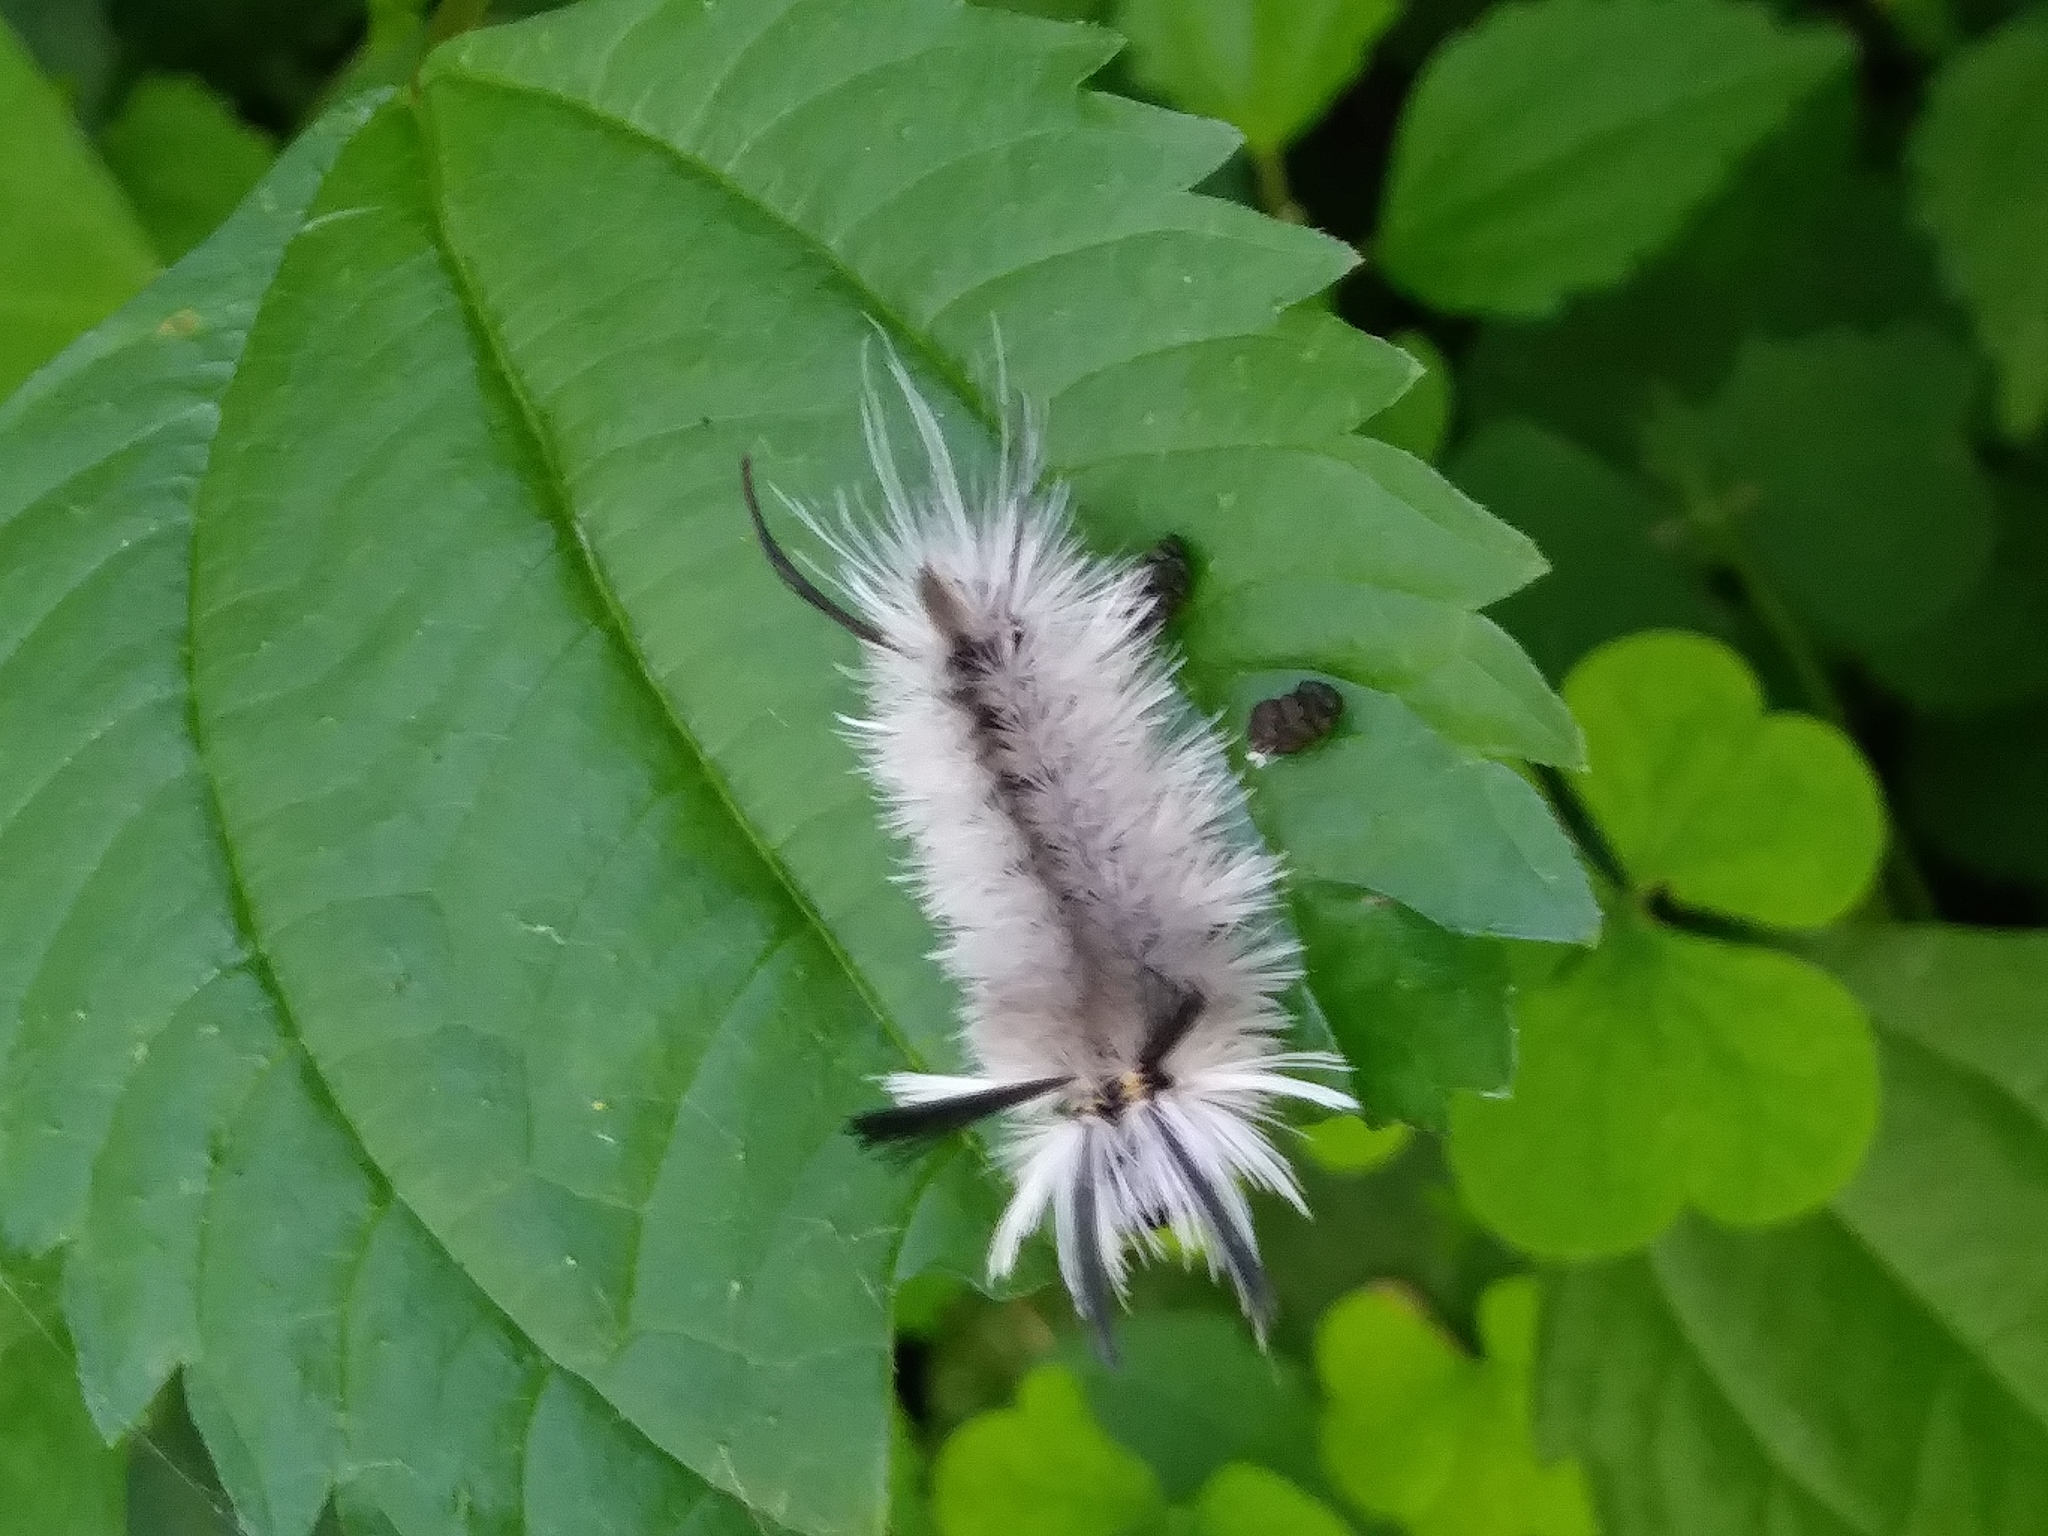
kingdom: Animalia
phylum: Arthropoda
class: Insecta
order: Lepidoptera
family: Erebidae
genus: Halysidota
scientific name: Halysidota tessellaris
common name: Banded tussock moth
